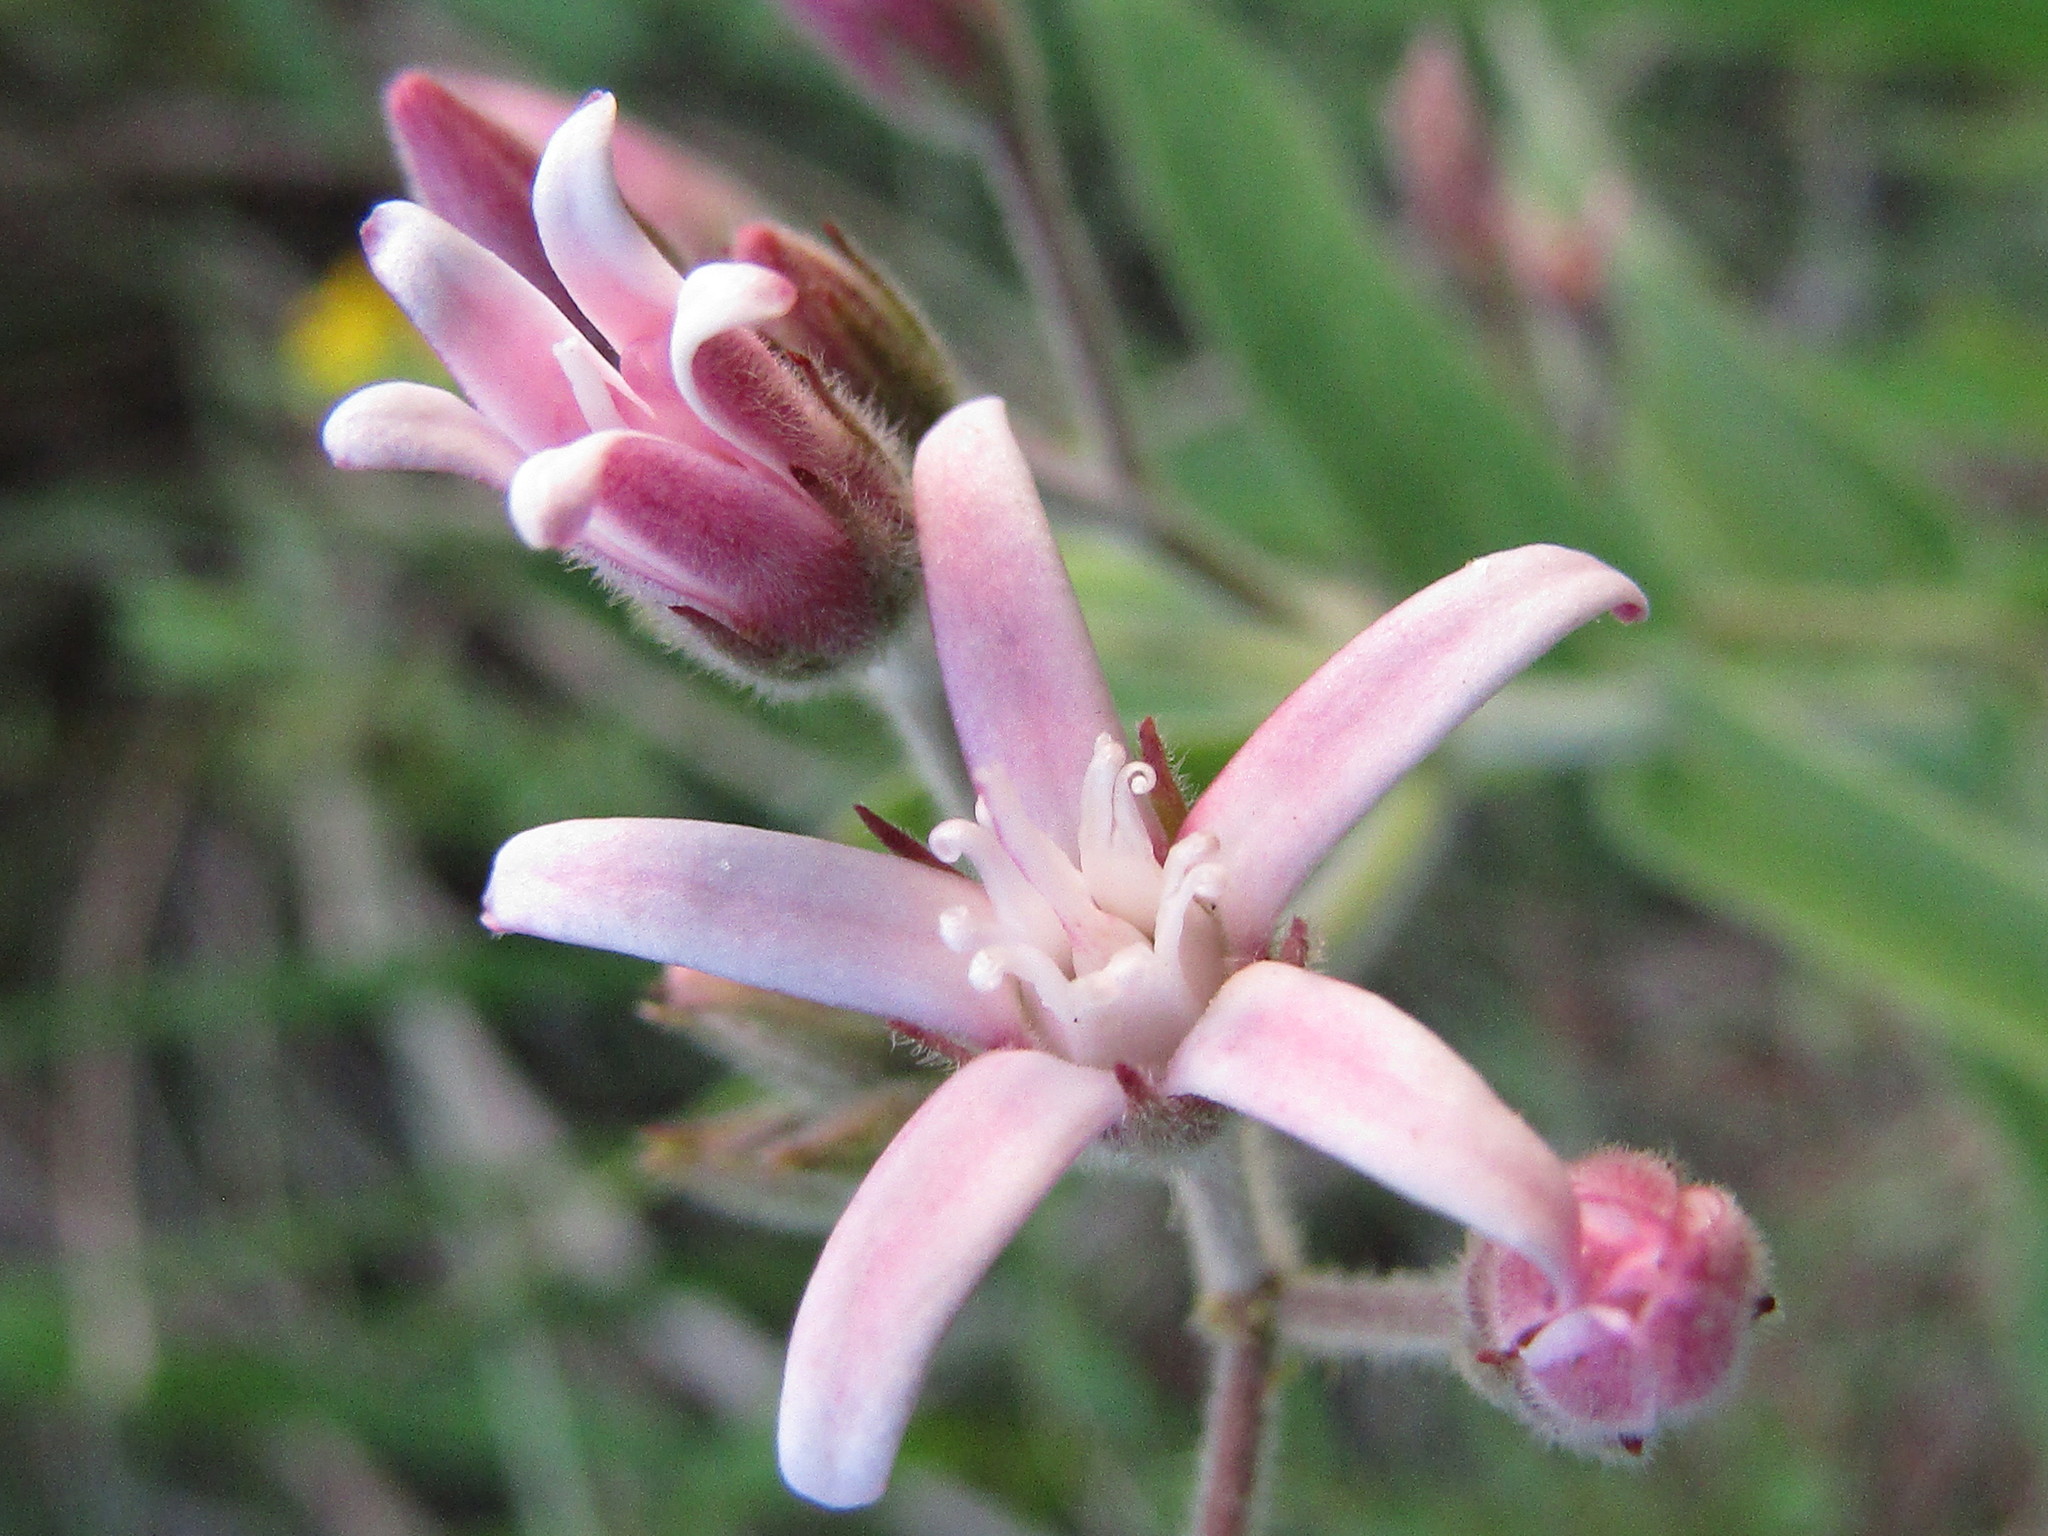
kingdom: Plantae
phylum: Tracheophyta
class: Magnoliopsida
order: Gentianales
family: Apocynaceae
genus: Oxypetalum
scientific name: Oxypetalum solanoides
